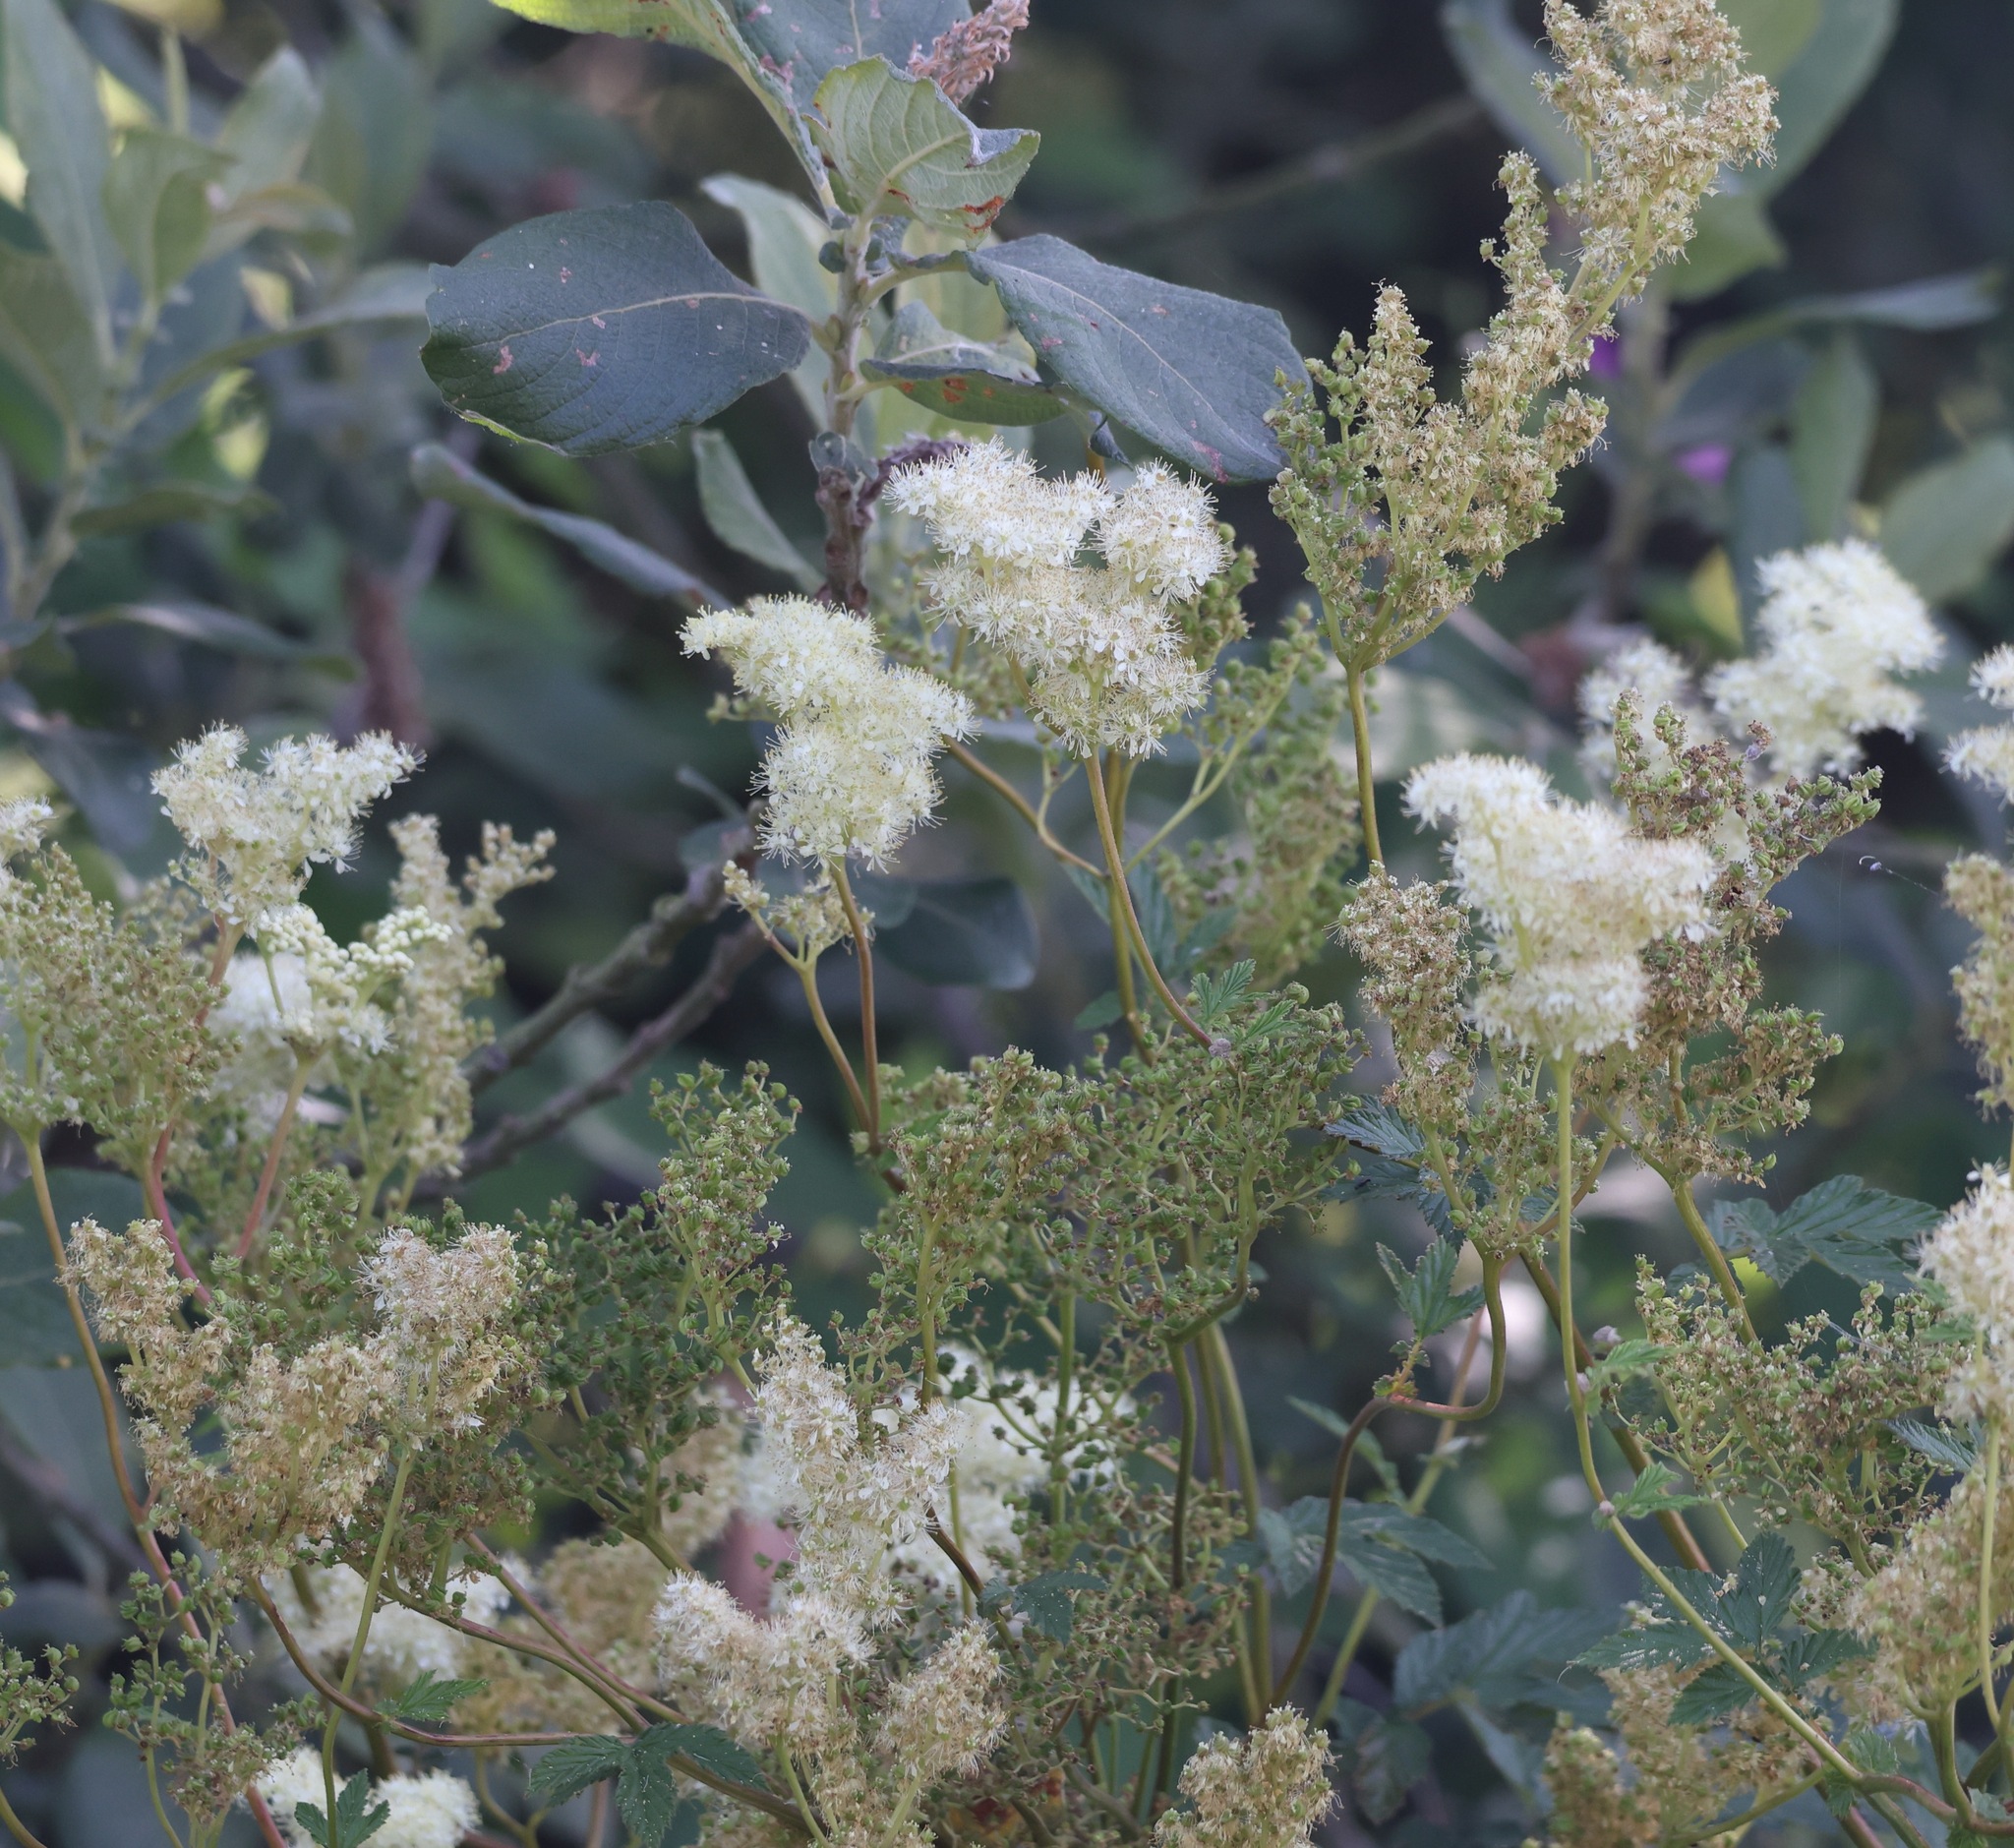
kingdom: Plantae
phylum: Tracheophyta
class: Magnoliopsida
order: Rosales
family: Rosaceae
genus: Filipendula
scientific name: Filipendula ulmaria
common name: Meadowsweet
